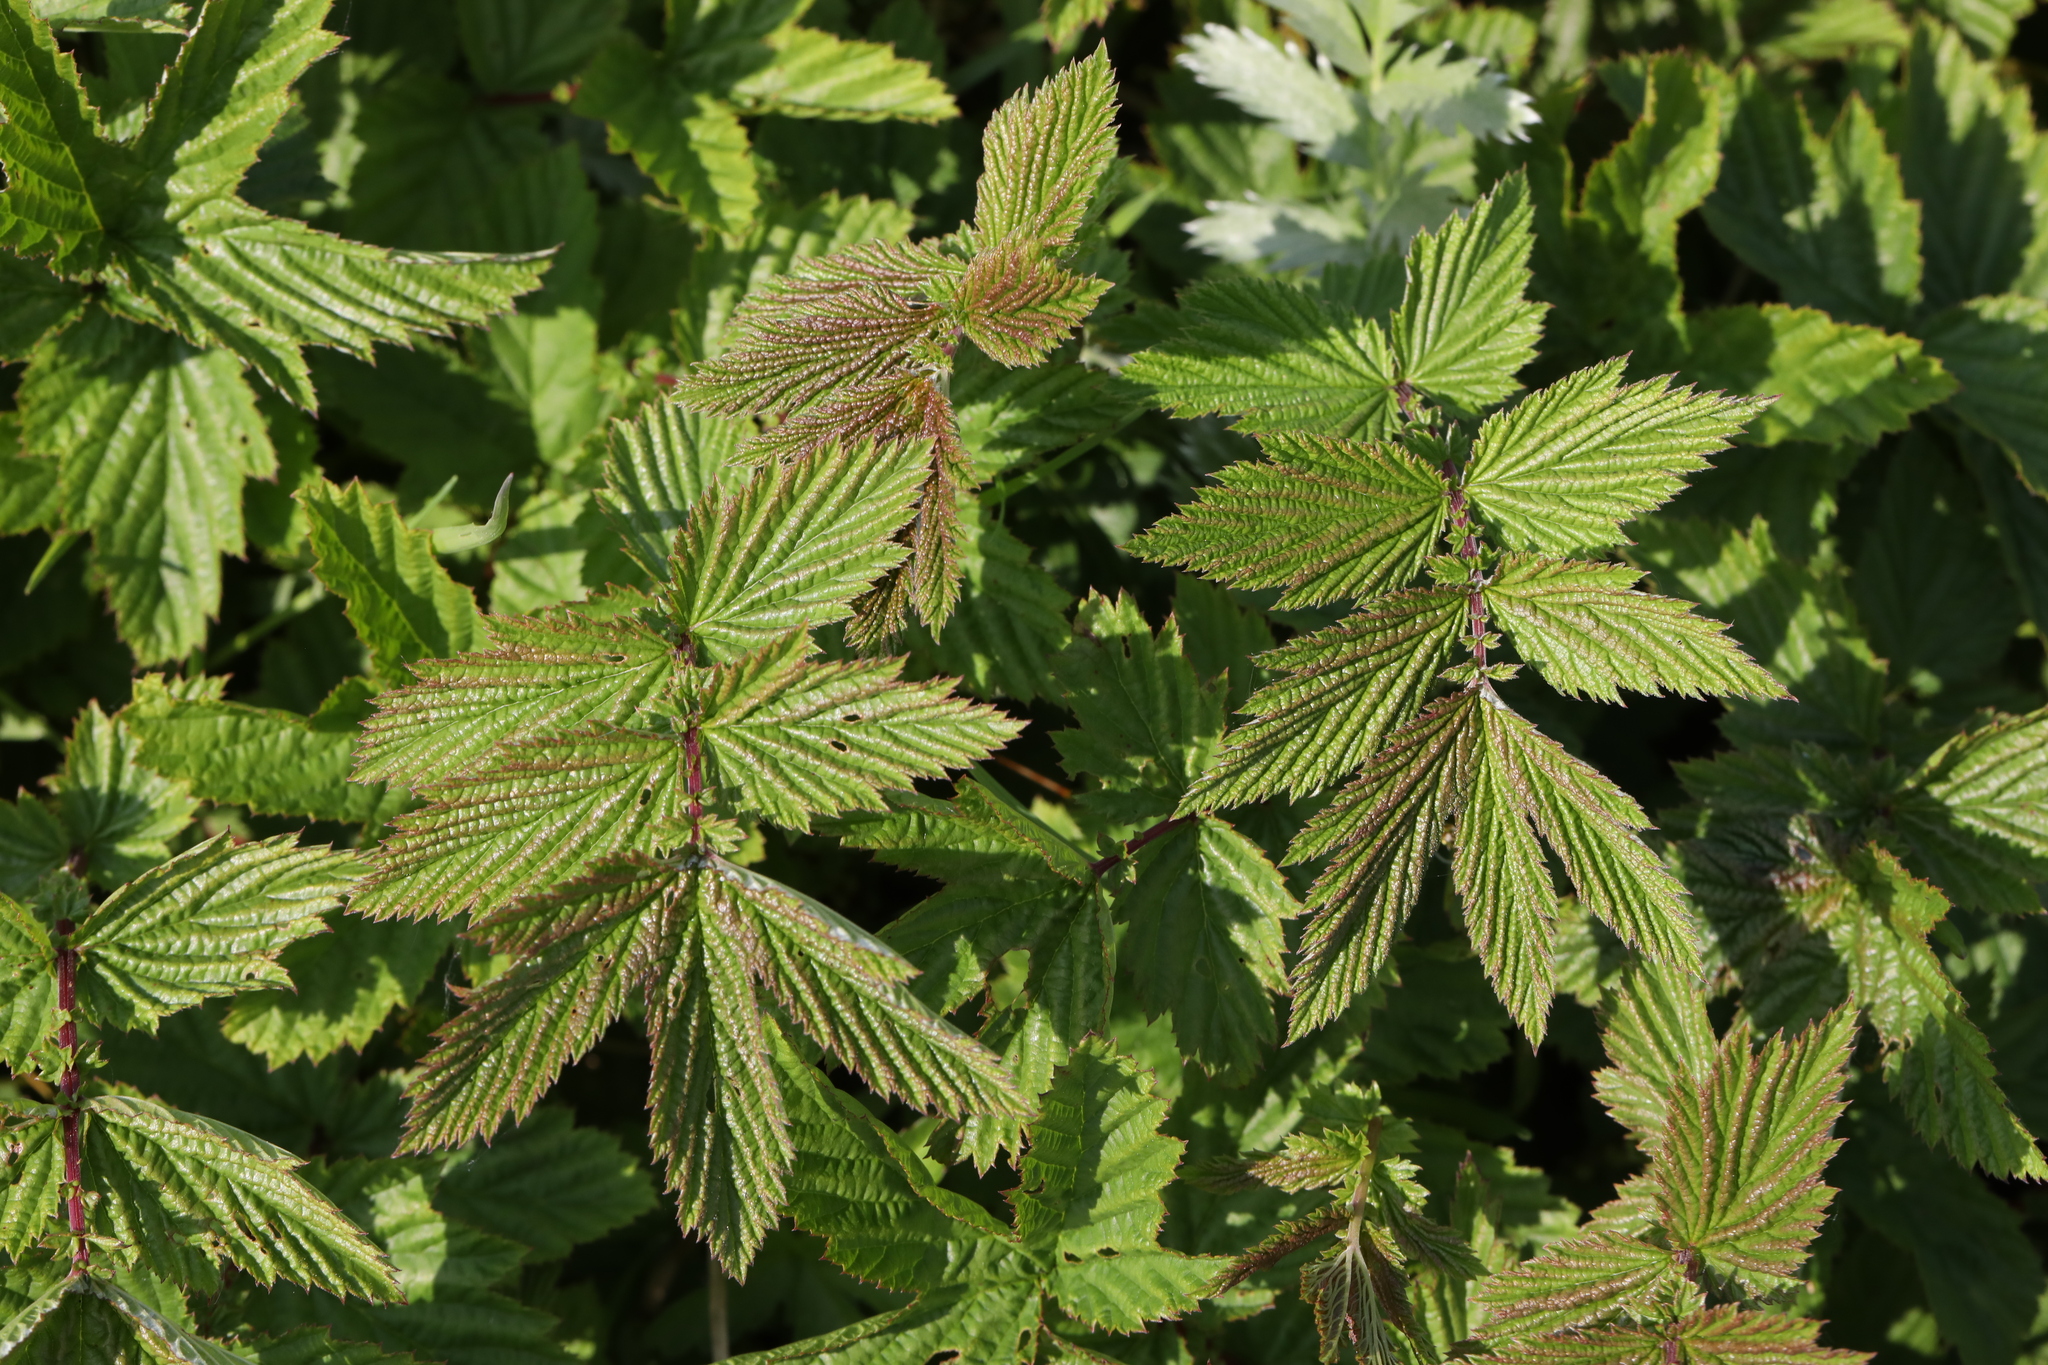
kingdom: Plantae
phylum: Tracheophyta
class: Magnoliopsida
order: Rosales
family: Rosaceae
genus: Filipendula
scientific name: Filipendula ulmaria
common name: Meadowsweet
